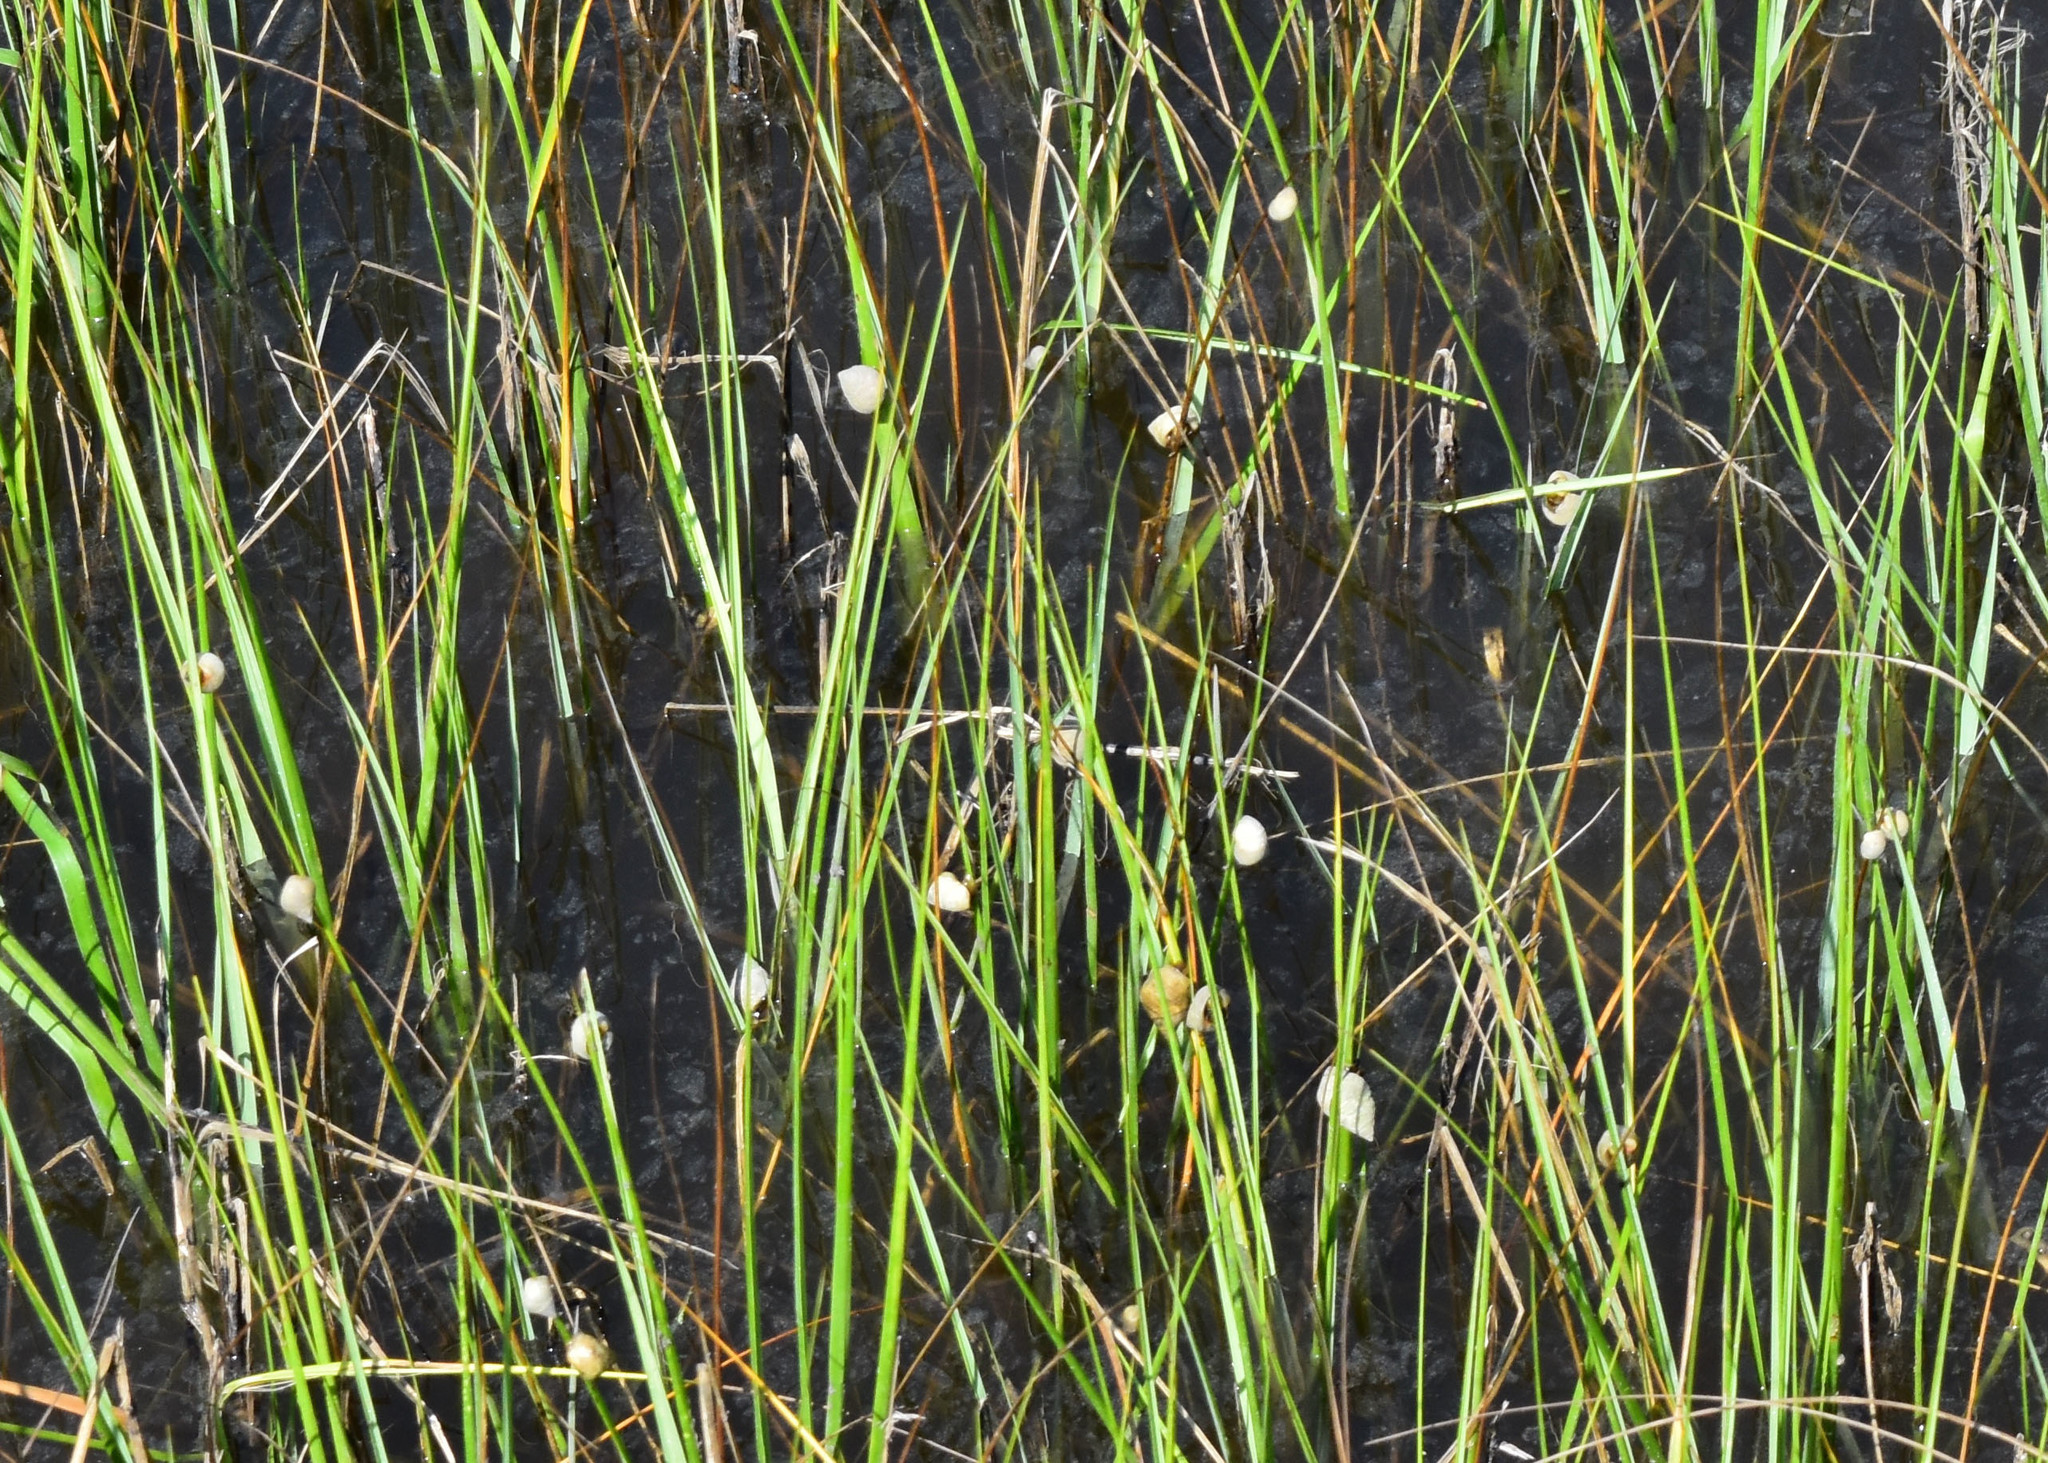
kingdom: Animalia
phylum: Mollusca
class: Gastropoda
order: Littorinimorpha
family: Littorinidae
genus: Littoraria
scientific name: Littoraria irrorata
